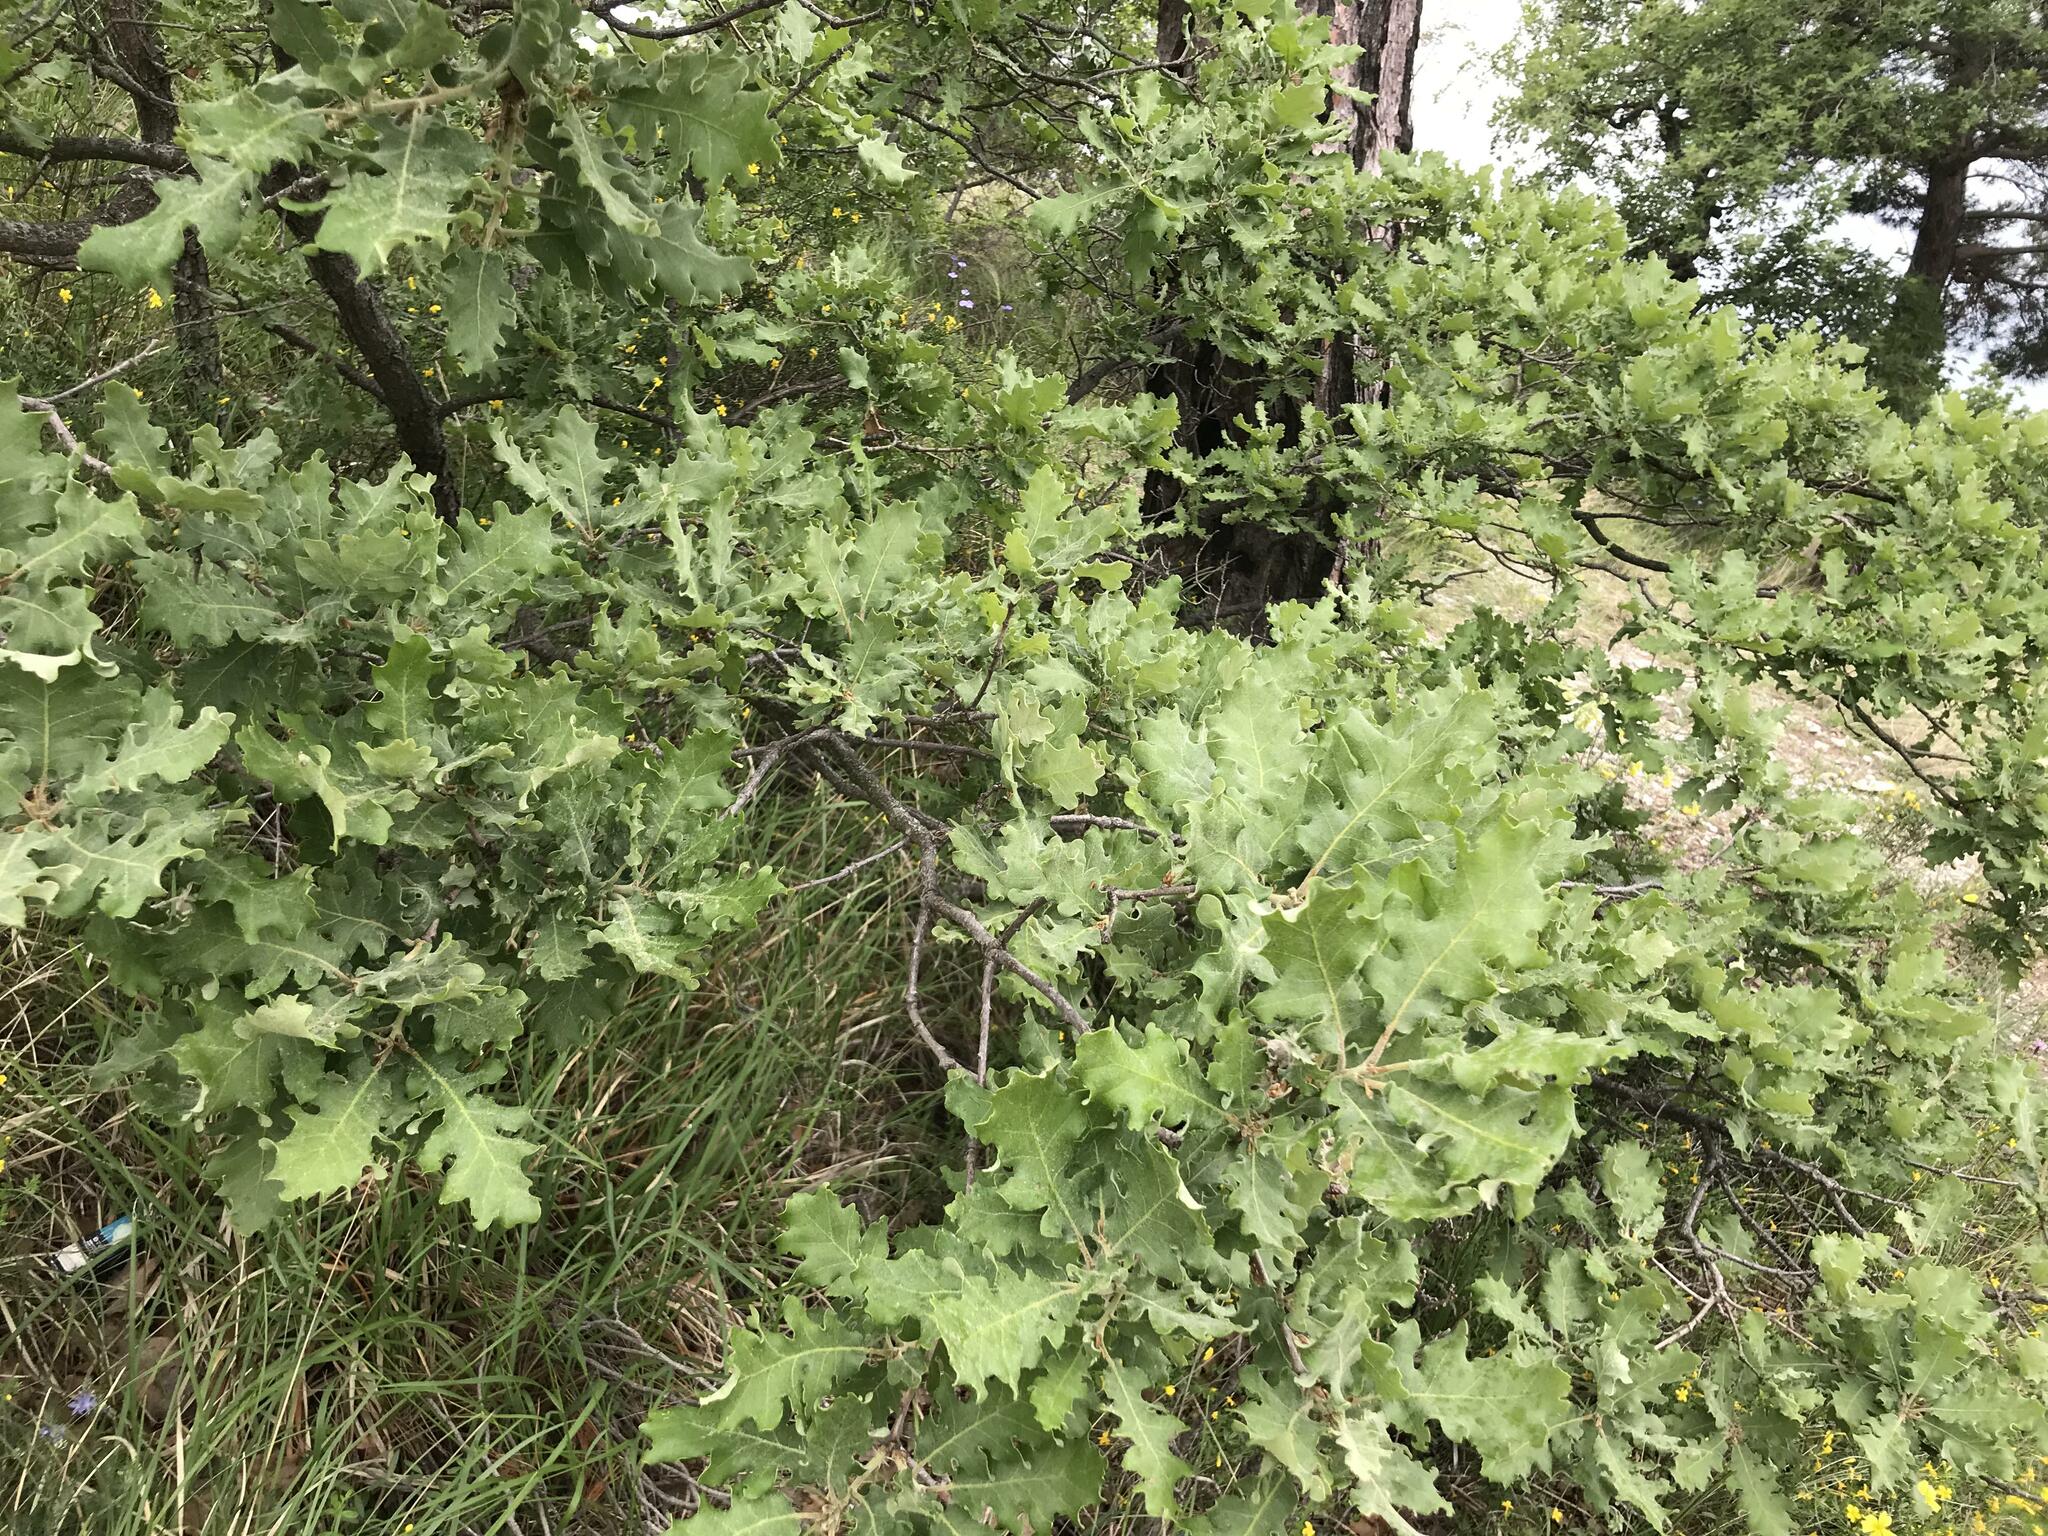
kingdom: Plantae
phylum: Tracheophyta
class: Magnoliopsida
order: Fagales
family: Fagaceae
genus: Quercus
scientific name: Quercus pubescens
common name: Downy oak
